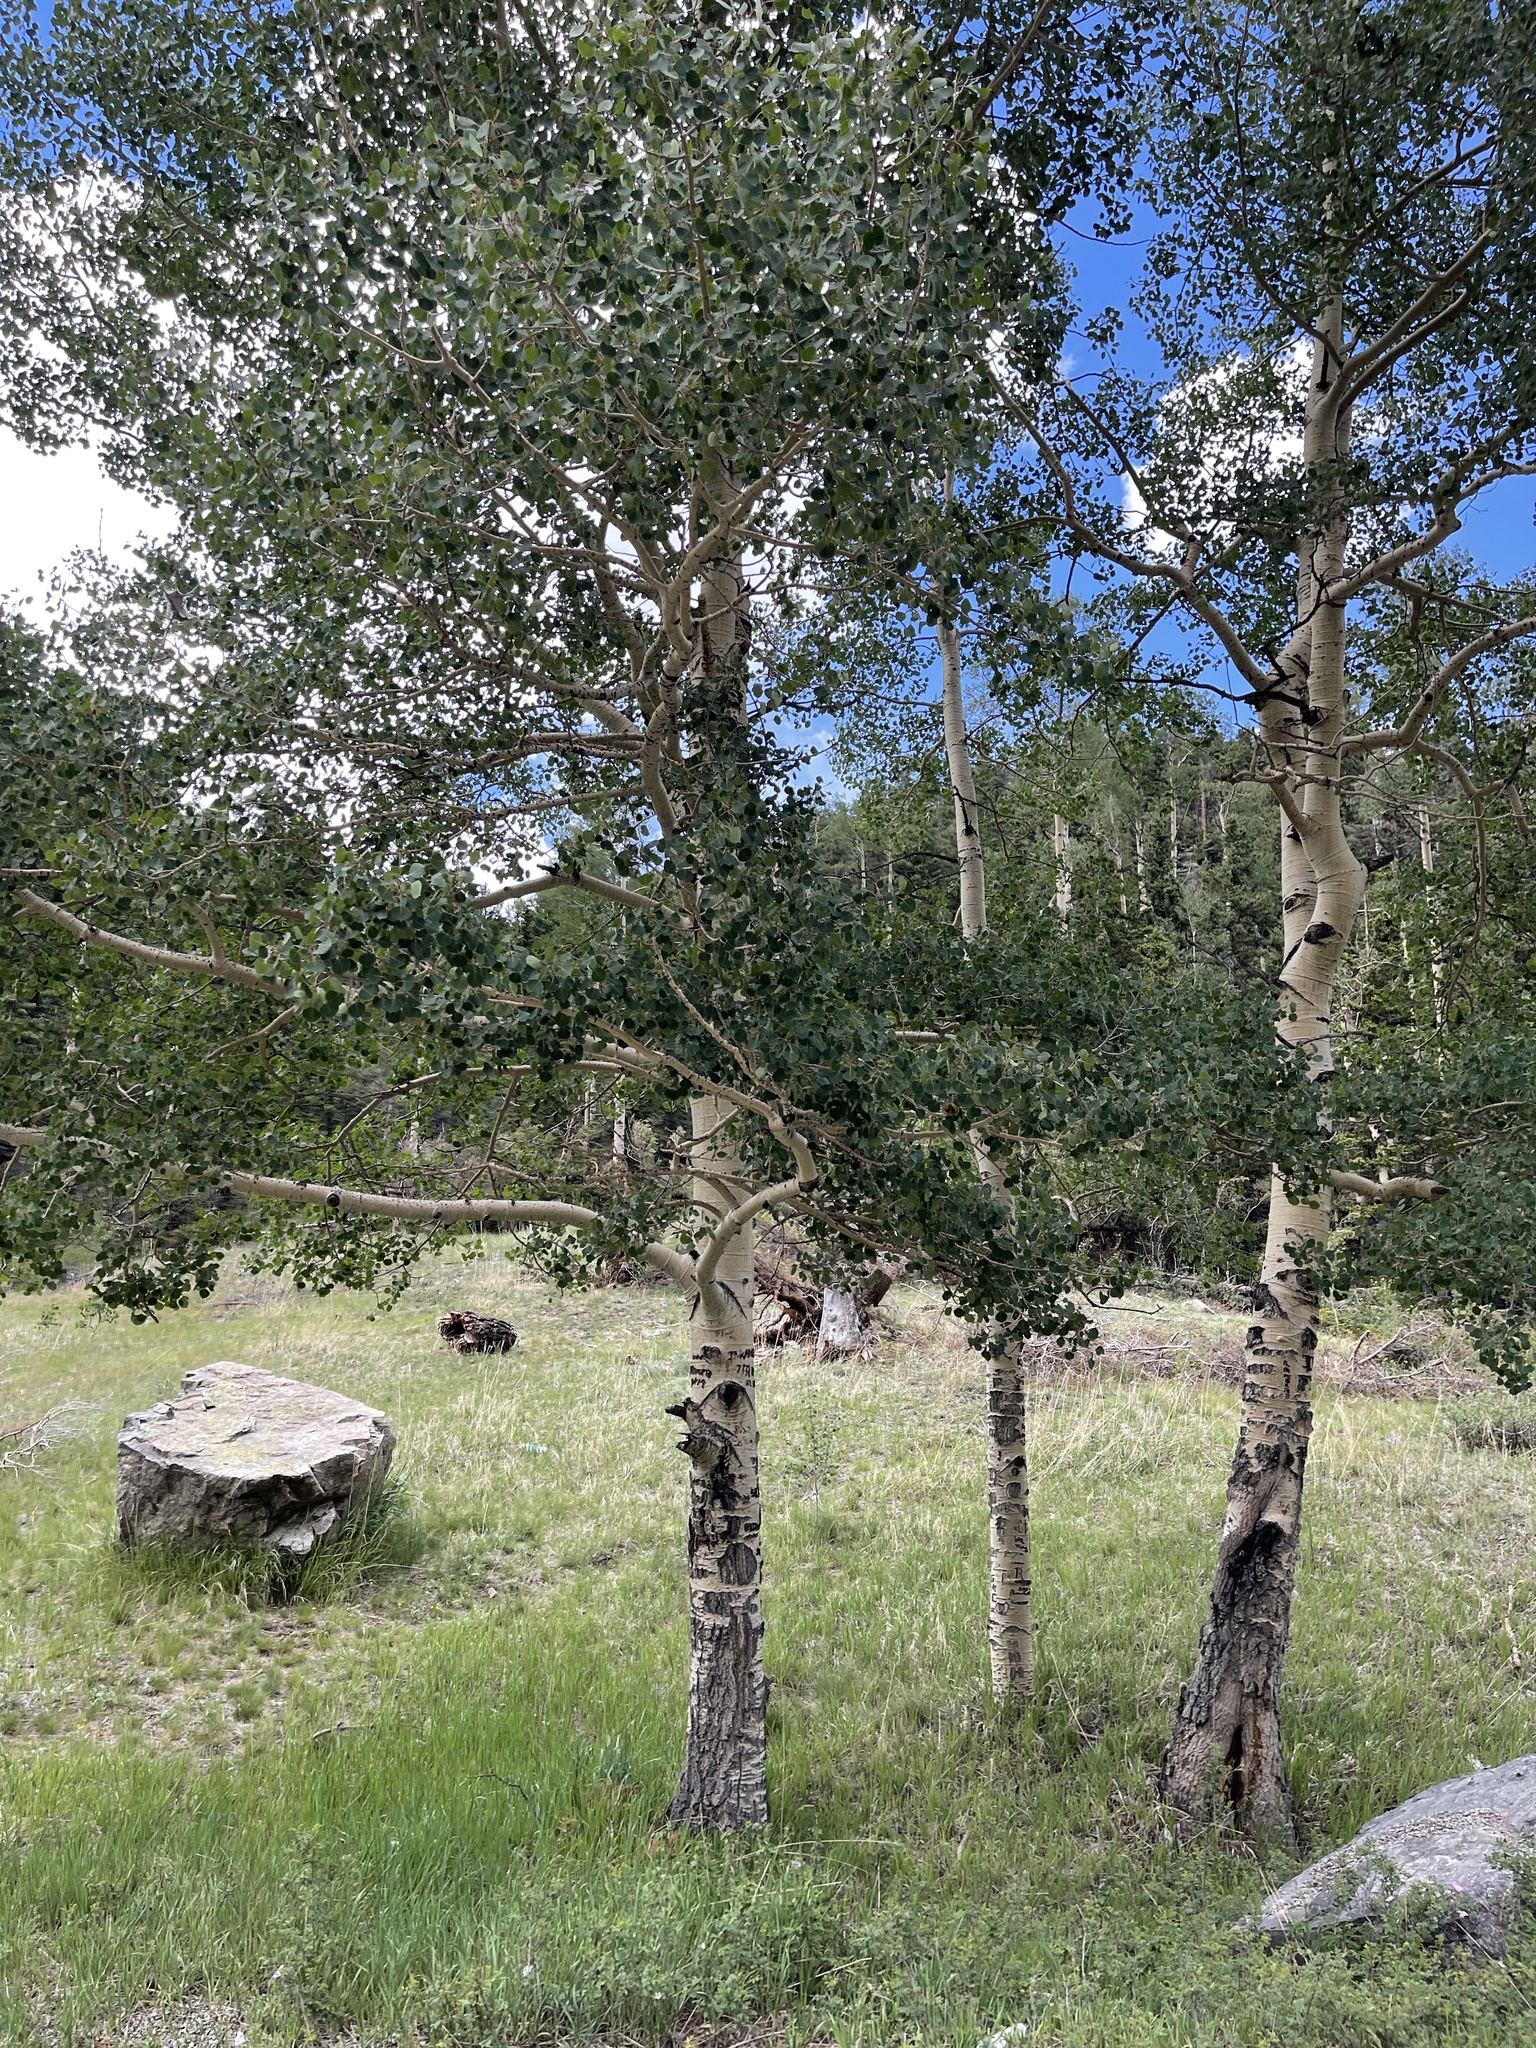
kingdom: Plantae
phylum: Tracheophyta
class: Magnoliopsida
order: Malpighiales
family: Salicaceae
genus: Populus
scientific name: Populus tremuloides
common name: Quaking aspen
